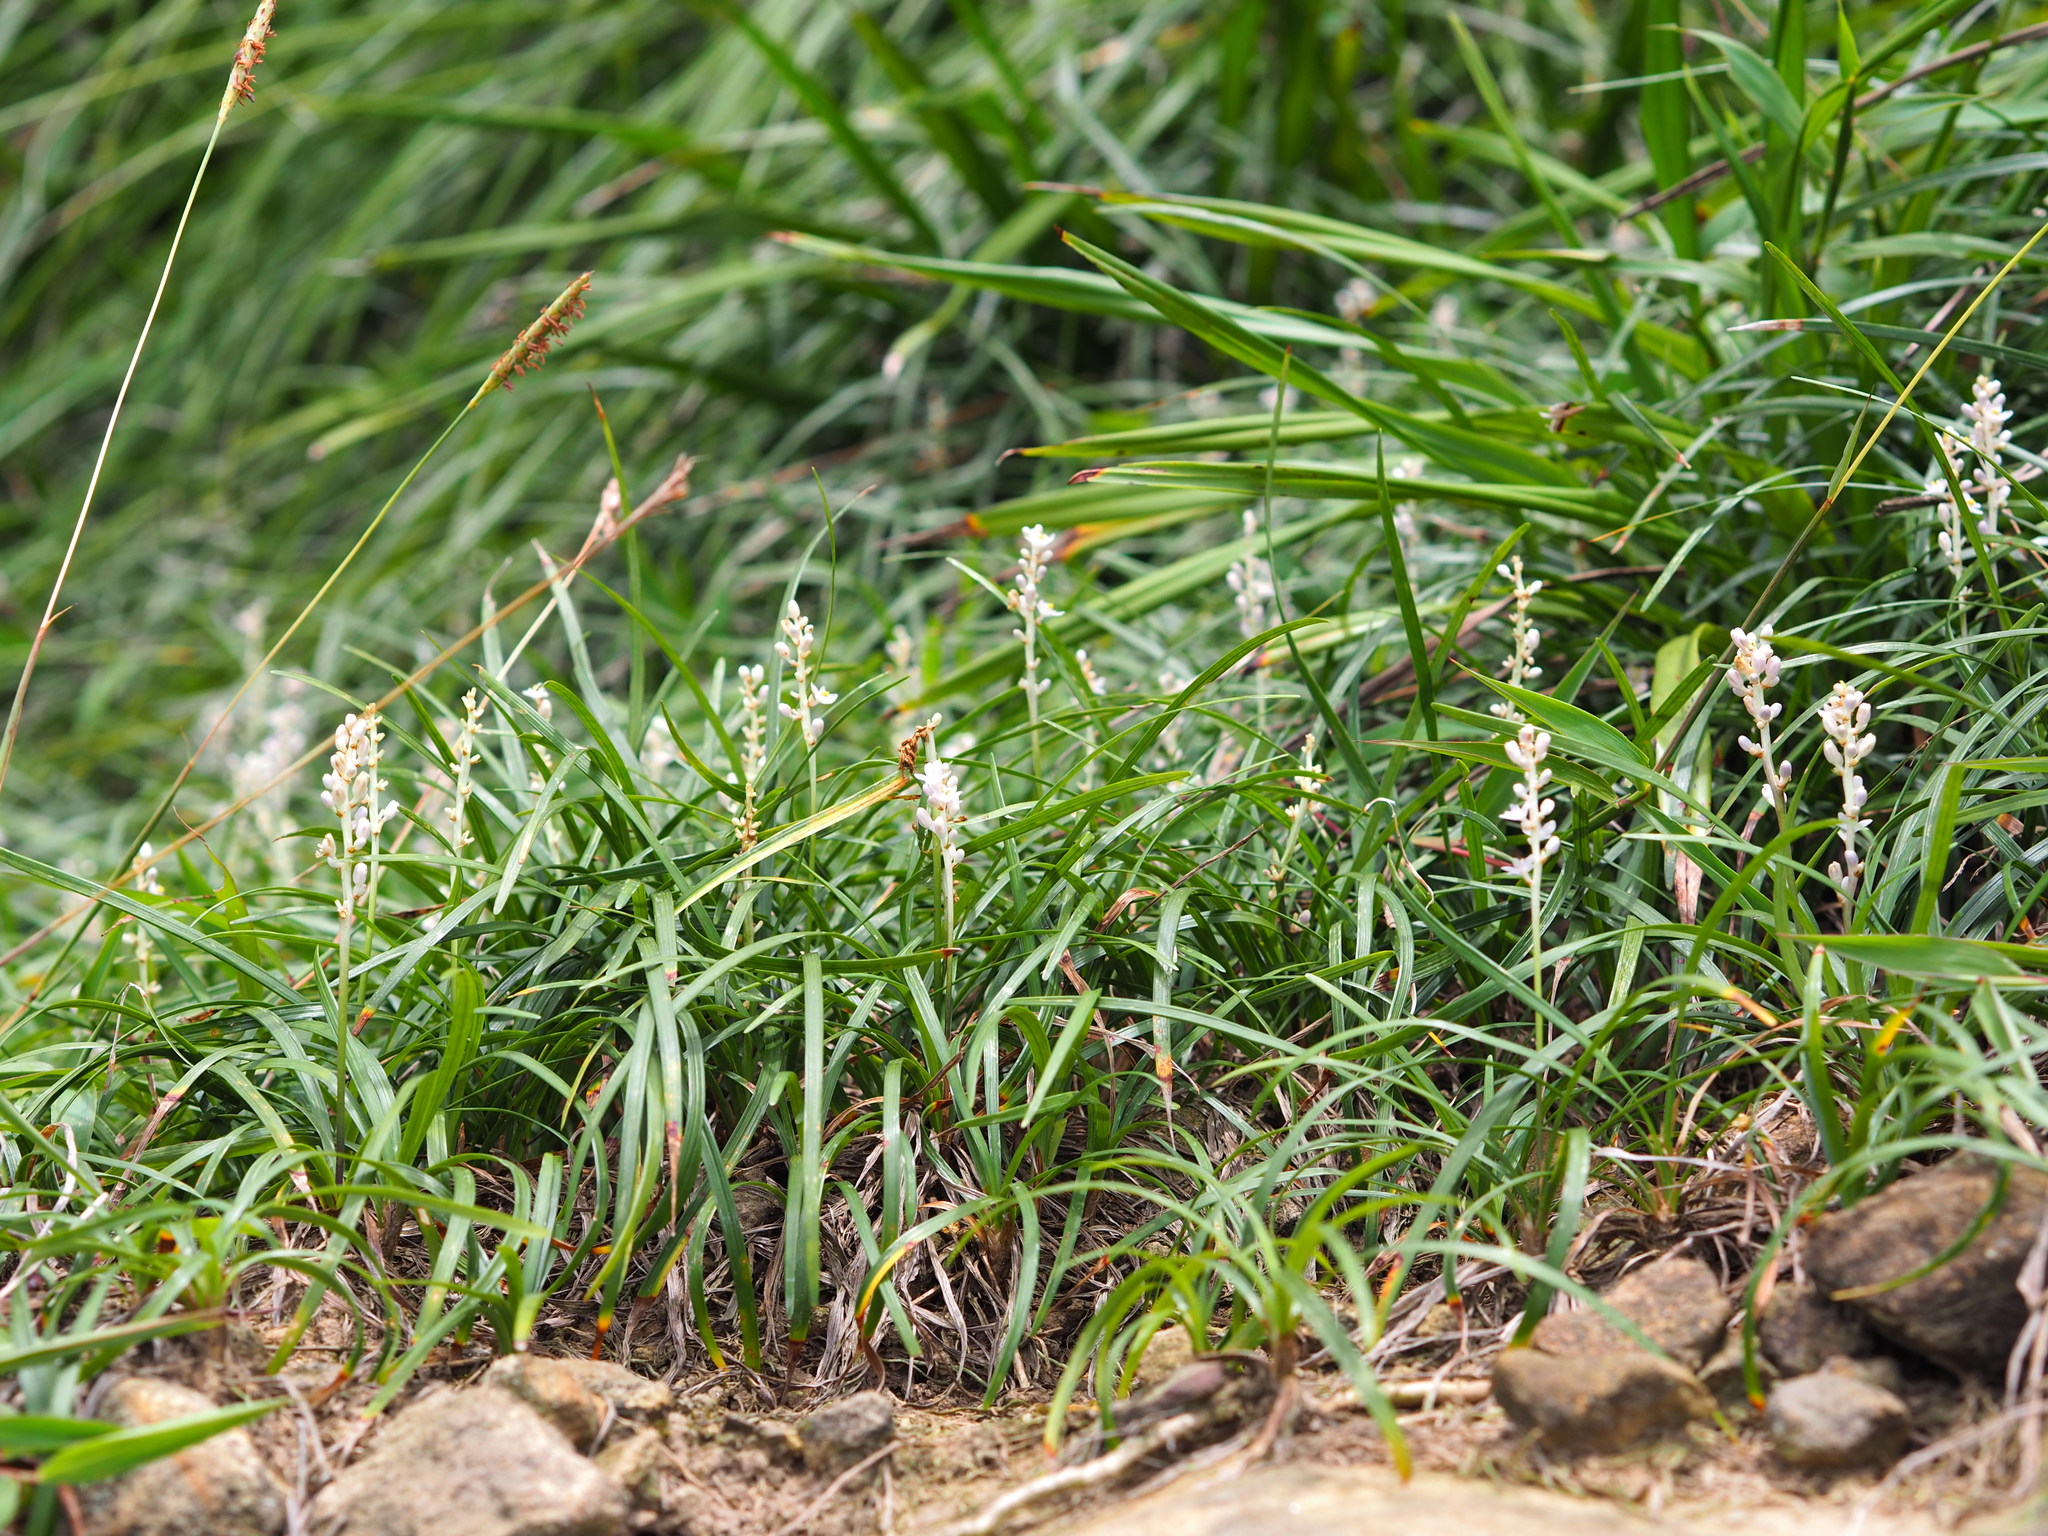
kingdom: Plantae
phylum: Tracheophyta
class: Liliopsida
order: Asparagales
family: Asparagaceae
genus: Liriope
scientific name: Liriope spicata
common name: Creeping liriope
